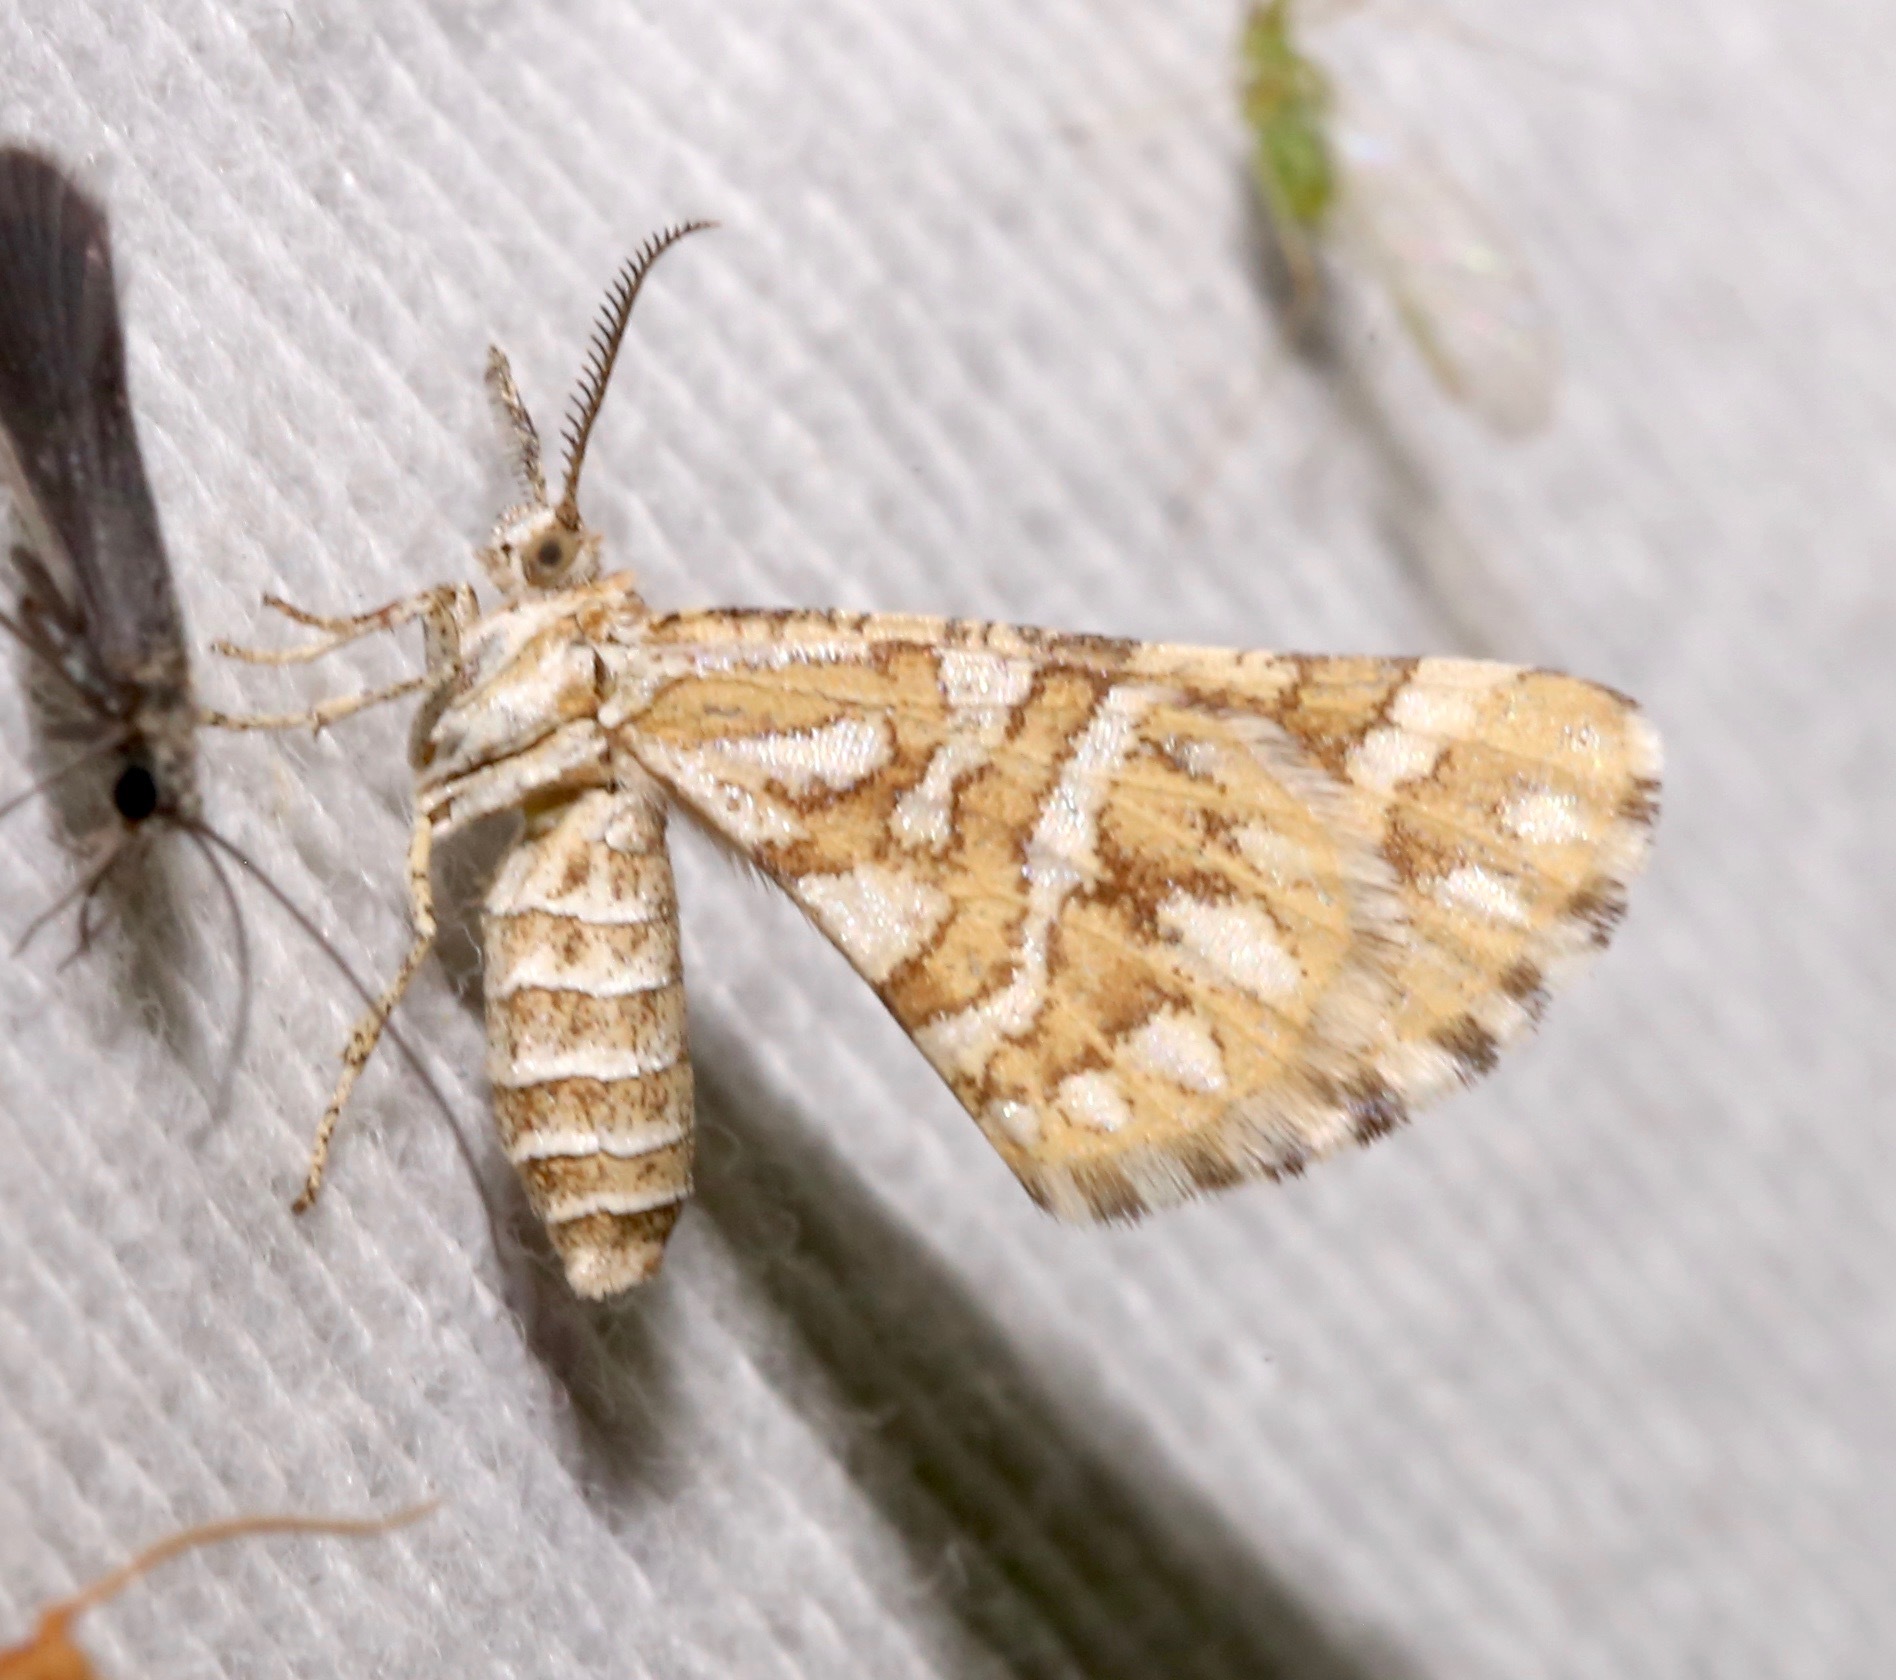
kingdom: Animalia
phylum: Arthropoda
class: Insecta
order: Lepidoptera
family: Geometridae
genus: Narraga
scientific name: Narraga fimetaria
